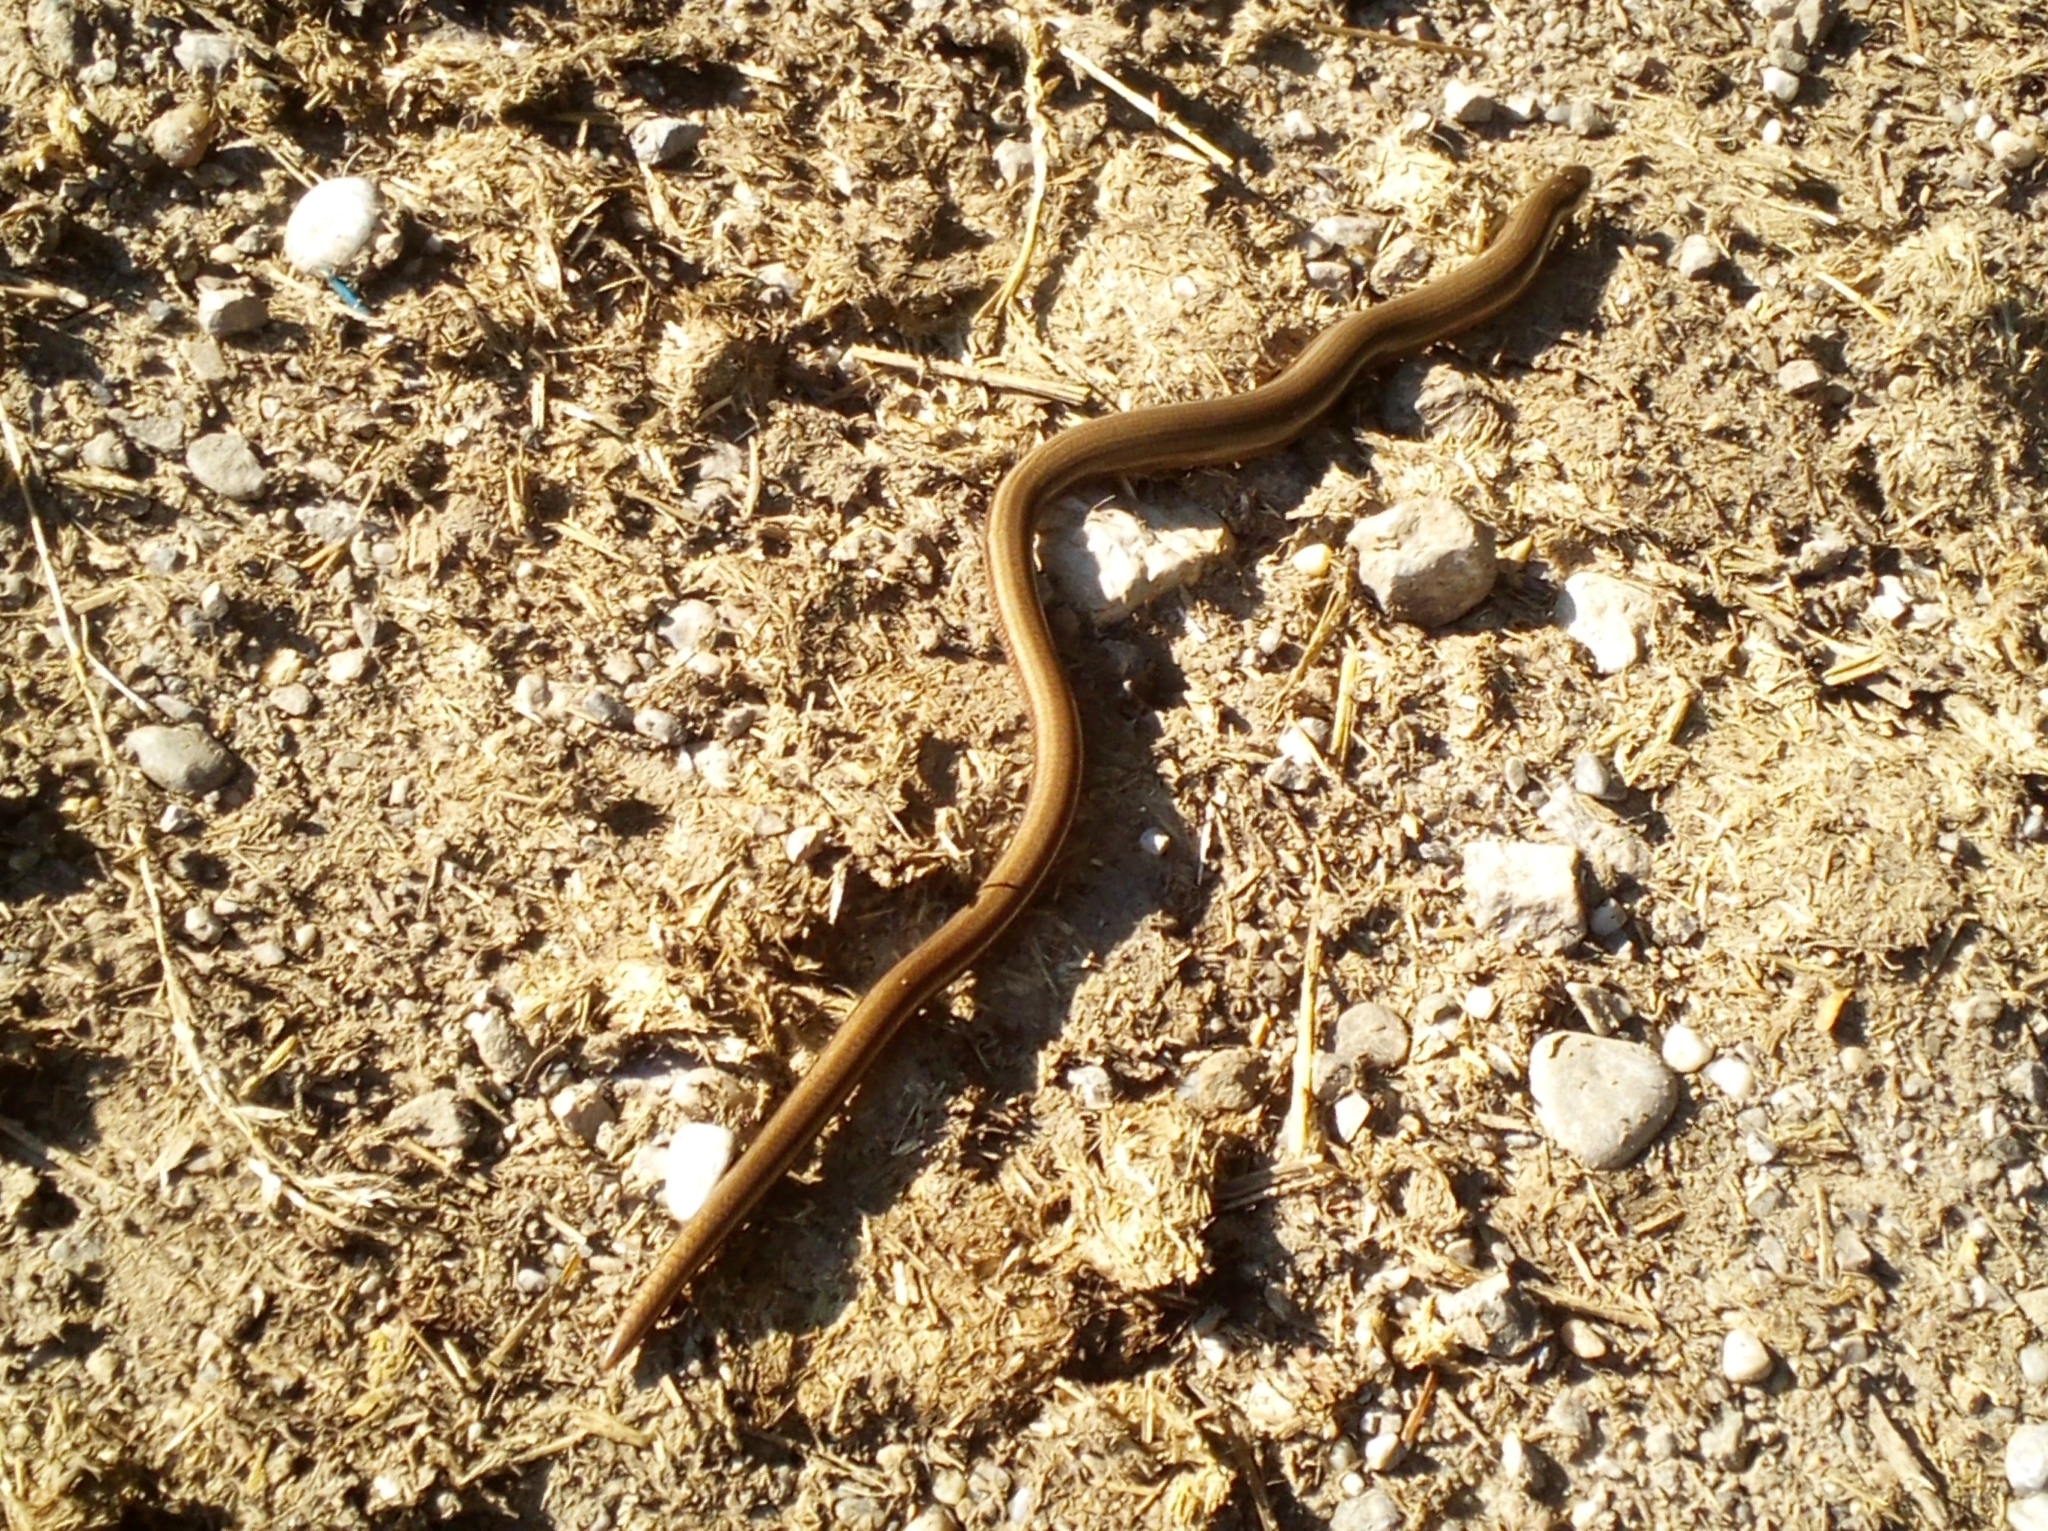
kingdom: Animalia
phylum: Chordata
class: Squamata
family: Anguidae
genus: Anguis
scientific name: Anguis fragilis
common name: Slow worm
